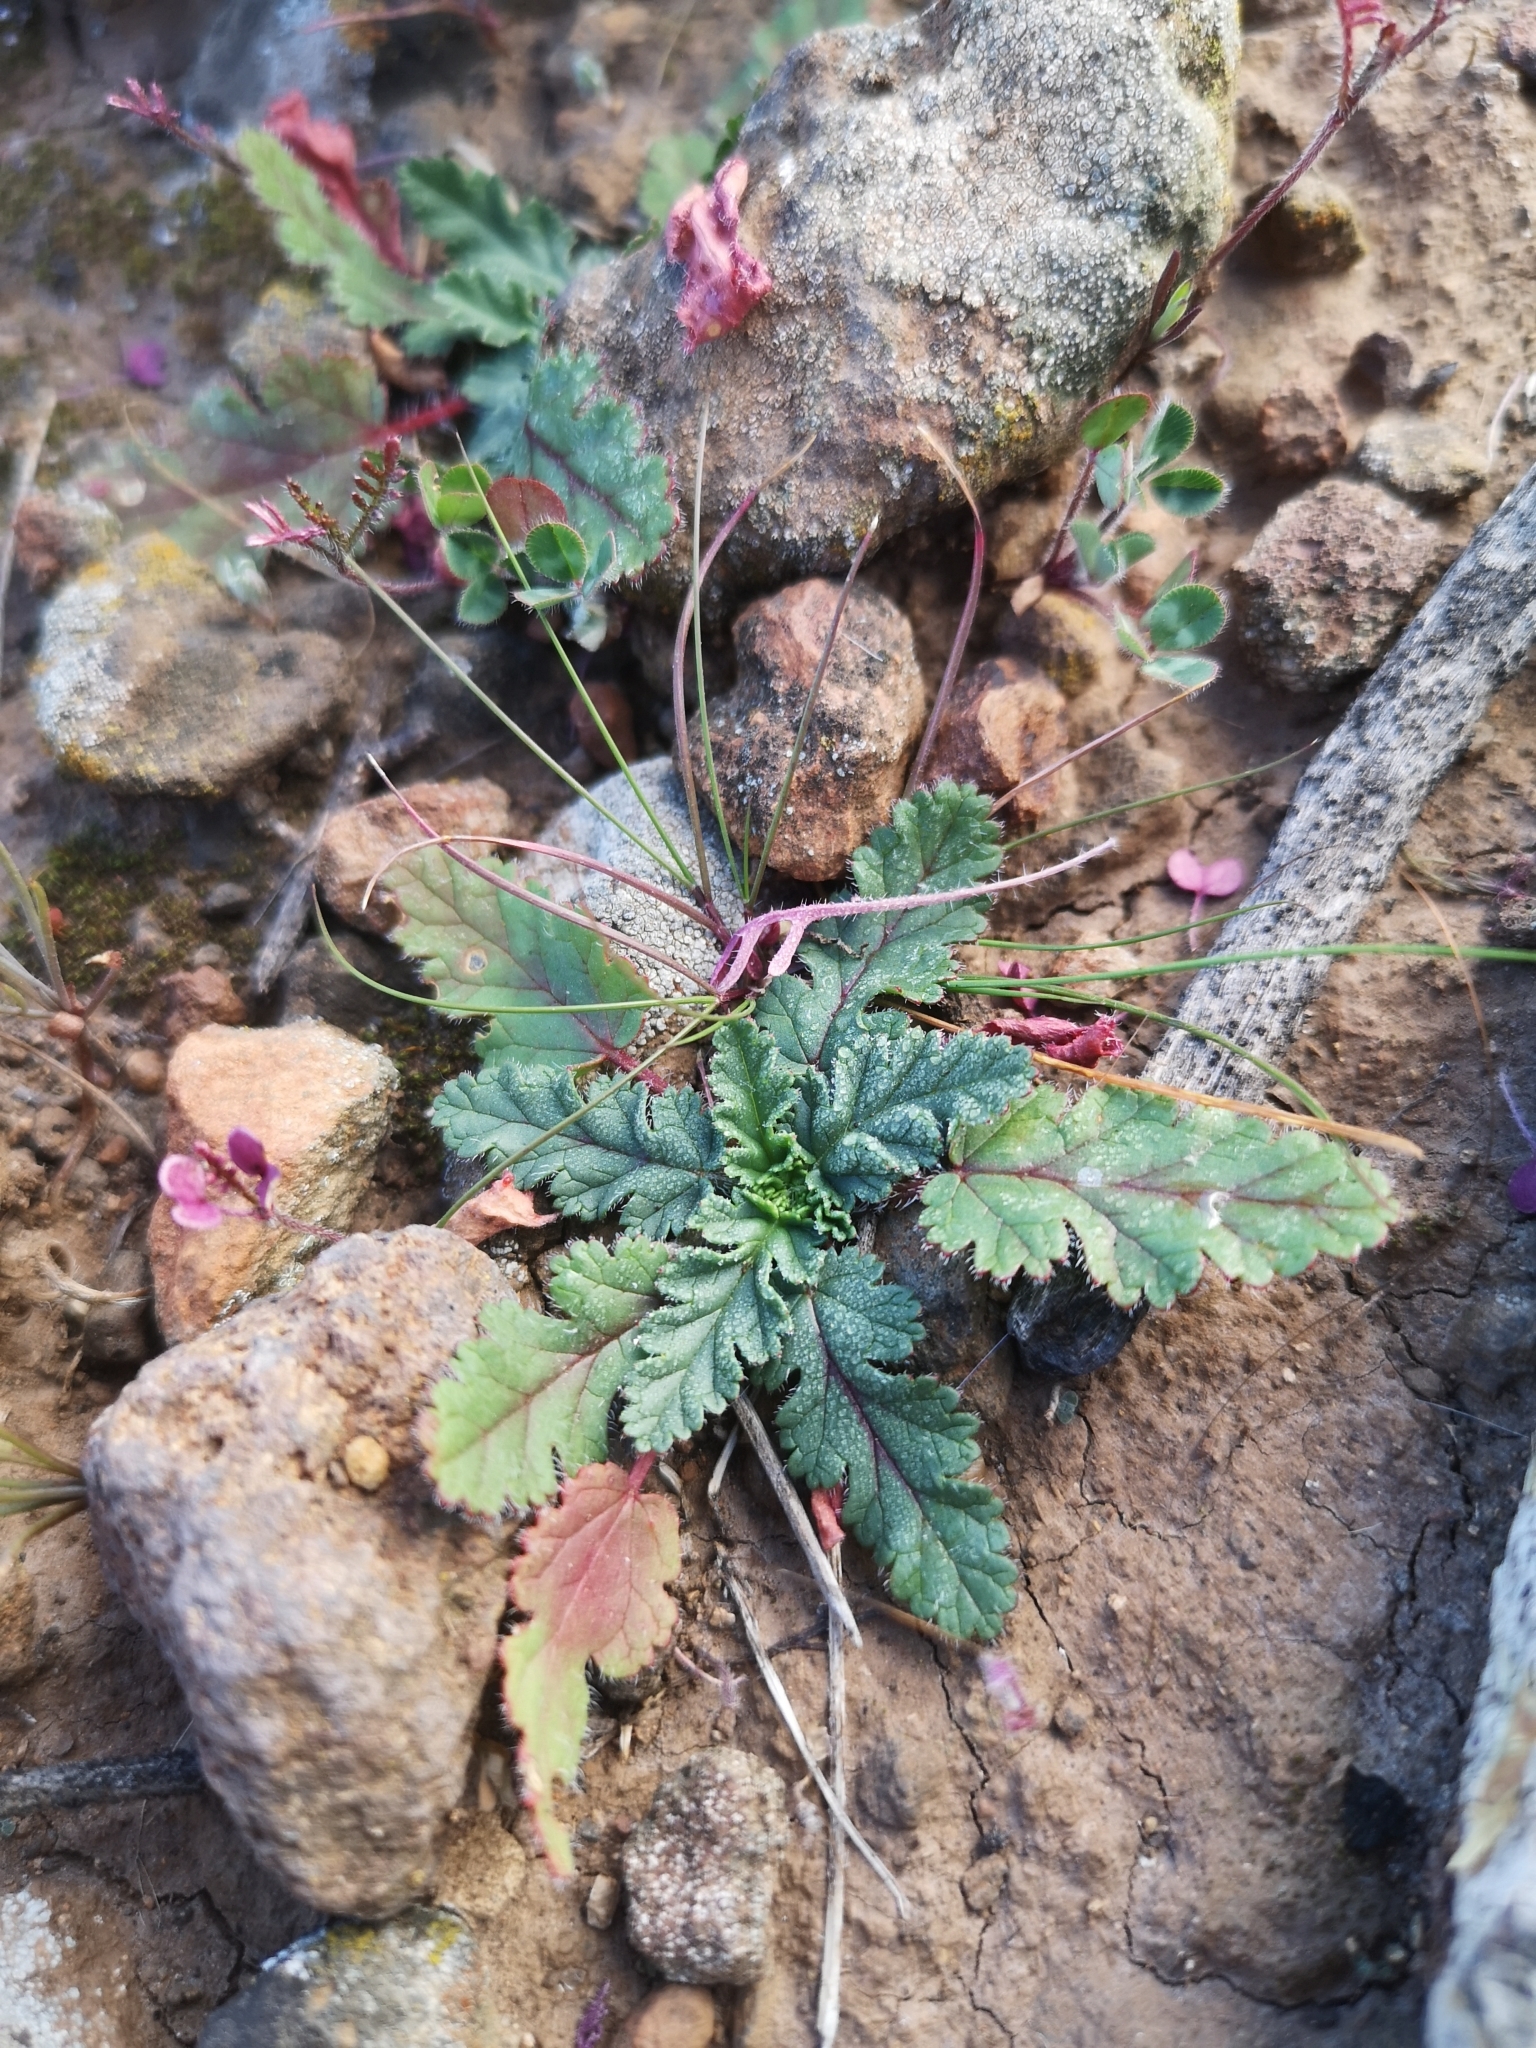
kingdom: Plantae
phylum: Tracheophyta
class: Magnoliopsida
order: Geraniales
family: Geraniaceae
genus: Erodium
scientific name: Erodium botrys
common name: Mediterranean stork's-bill
